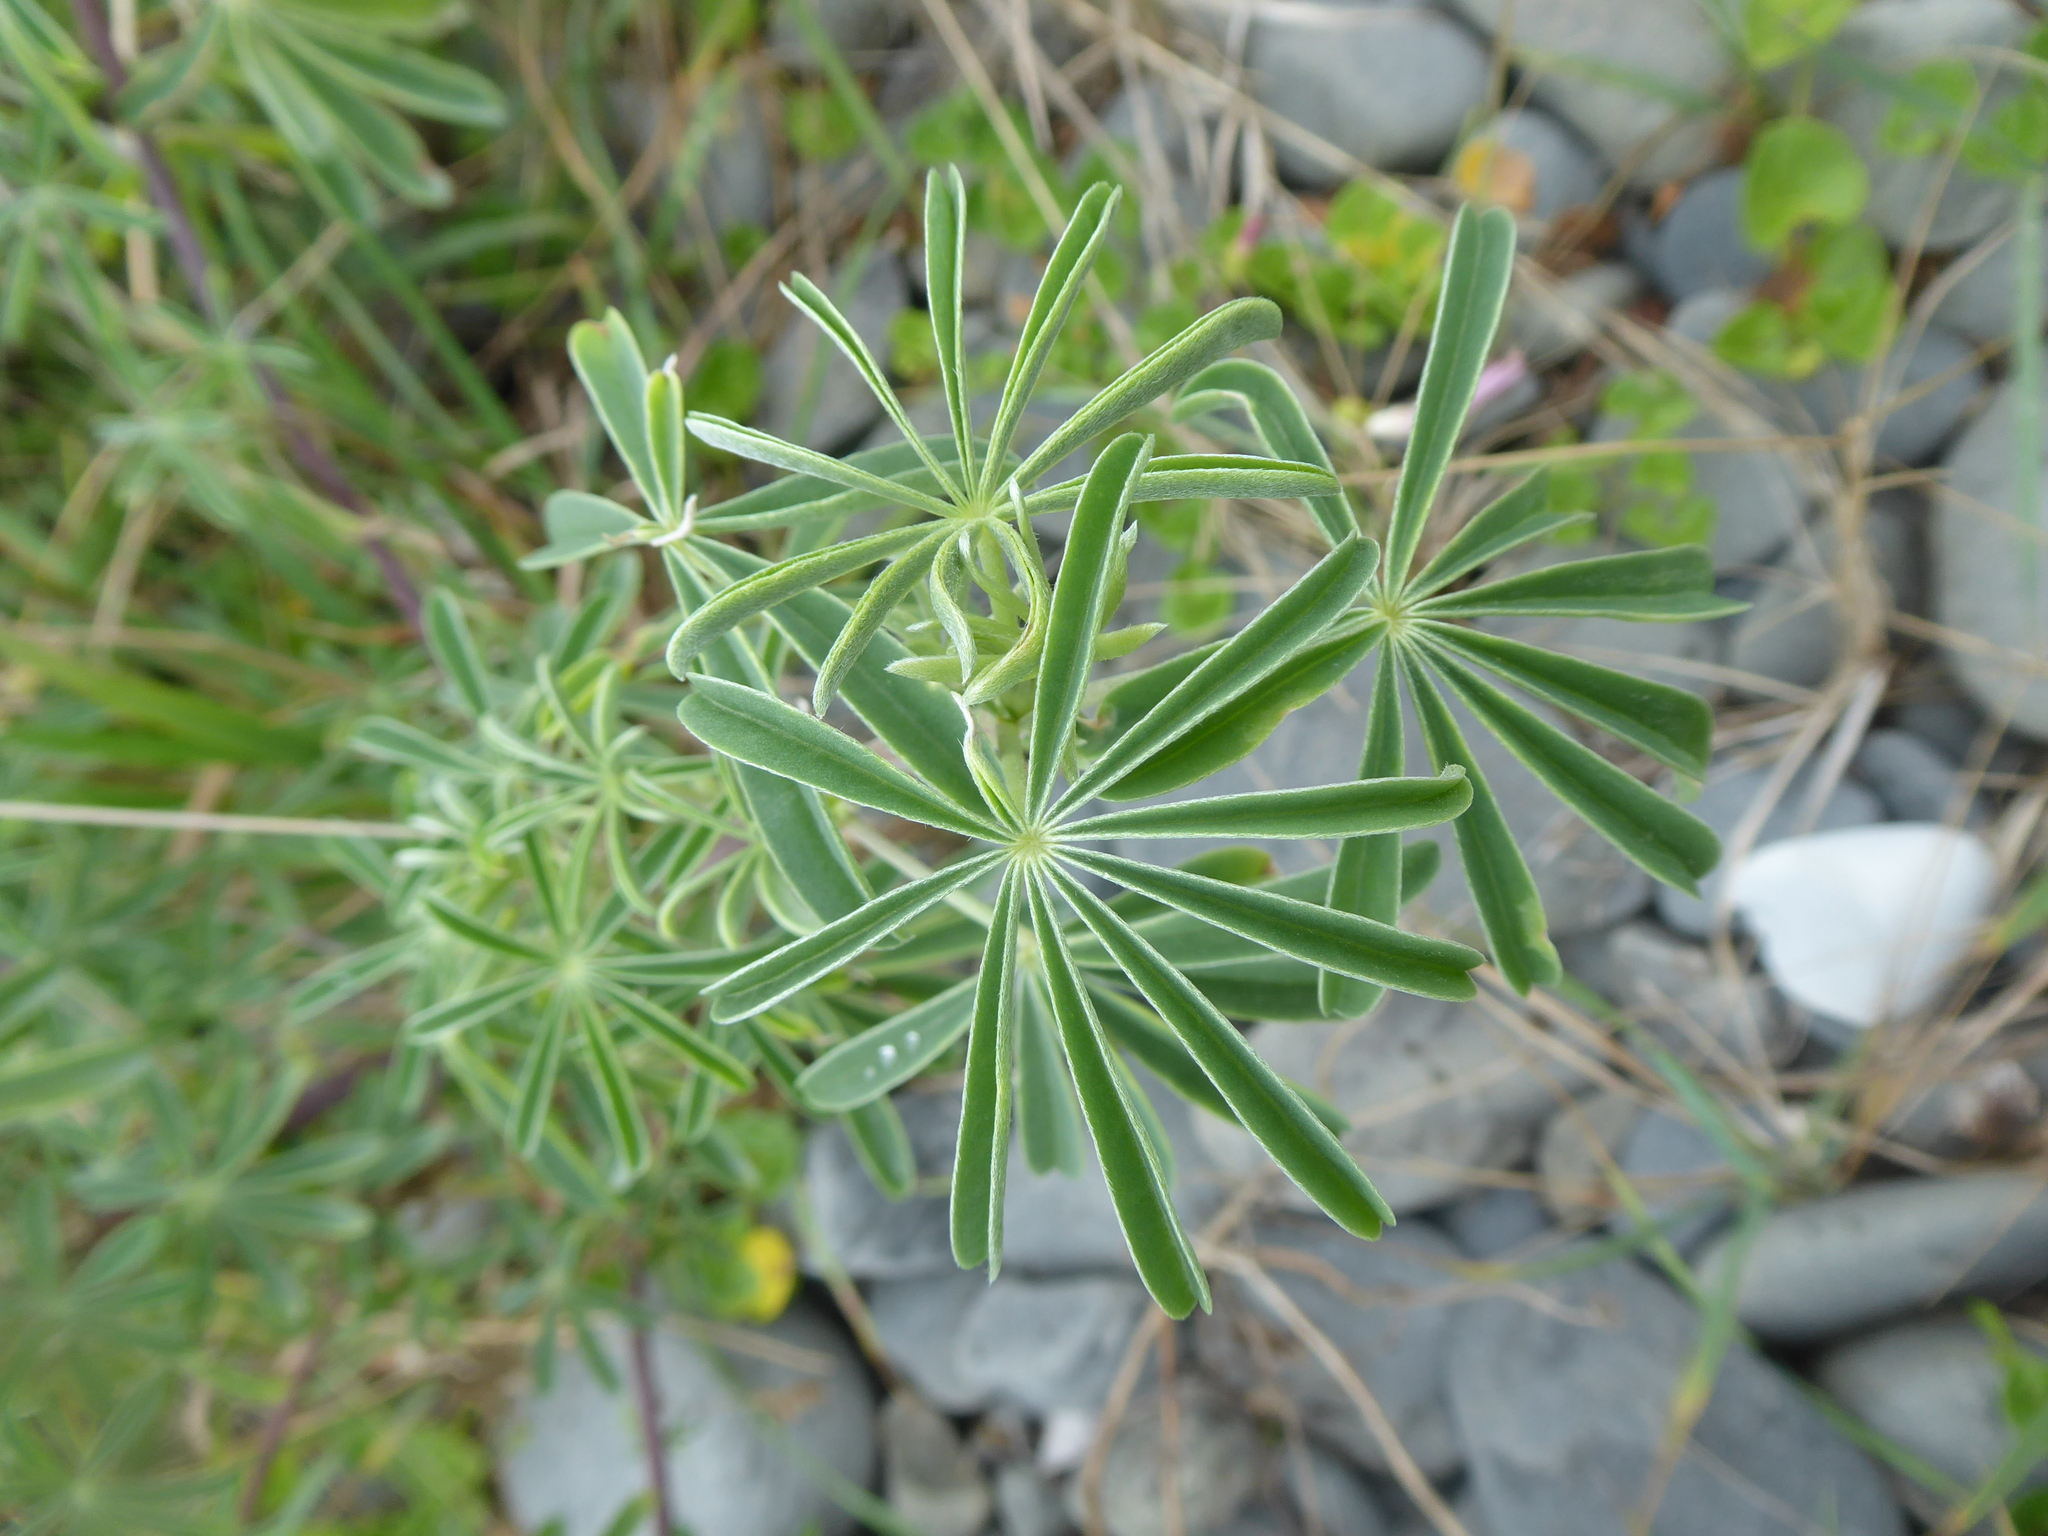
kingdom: Plantae
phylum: Tracheophyta
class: Magnoliopsida
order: Fabales
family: Fabaceae
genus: Lupinus
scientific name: Lupinus arboreus
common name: Yellow bush lupine
